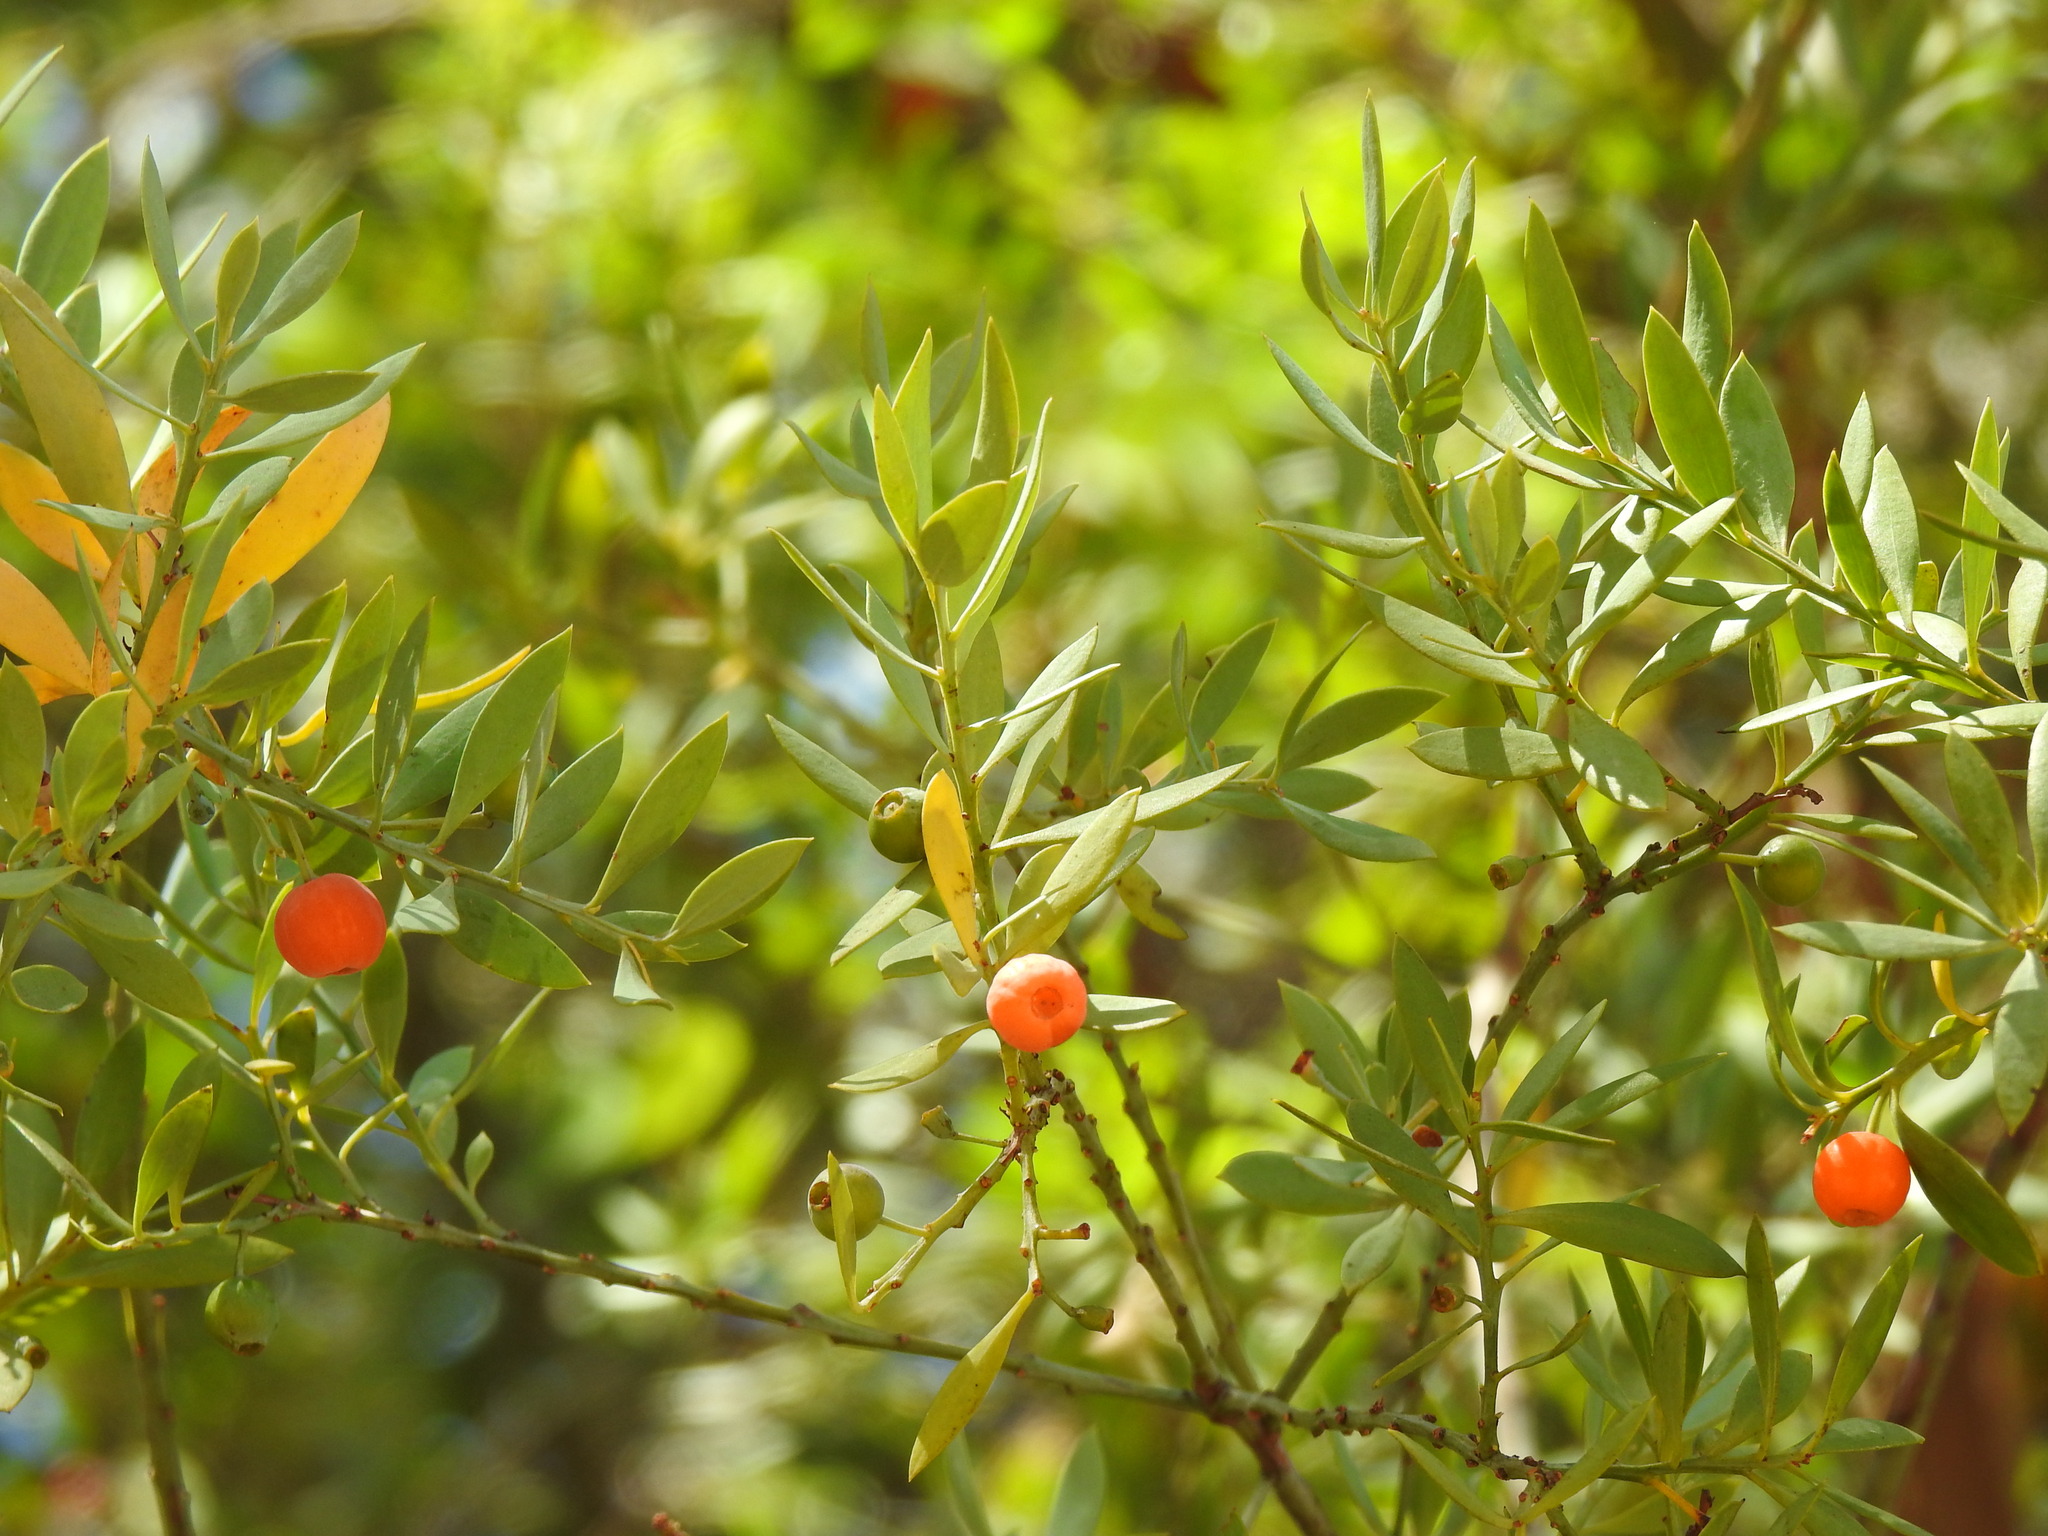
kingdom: Plantae
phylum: Tracheophyta
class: Magnoliopsida
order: Santalales
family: Santalaceae
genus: Osyris
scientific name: Osyris lanceolata
